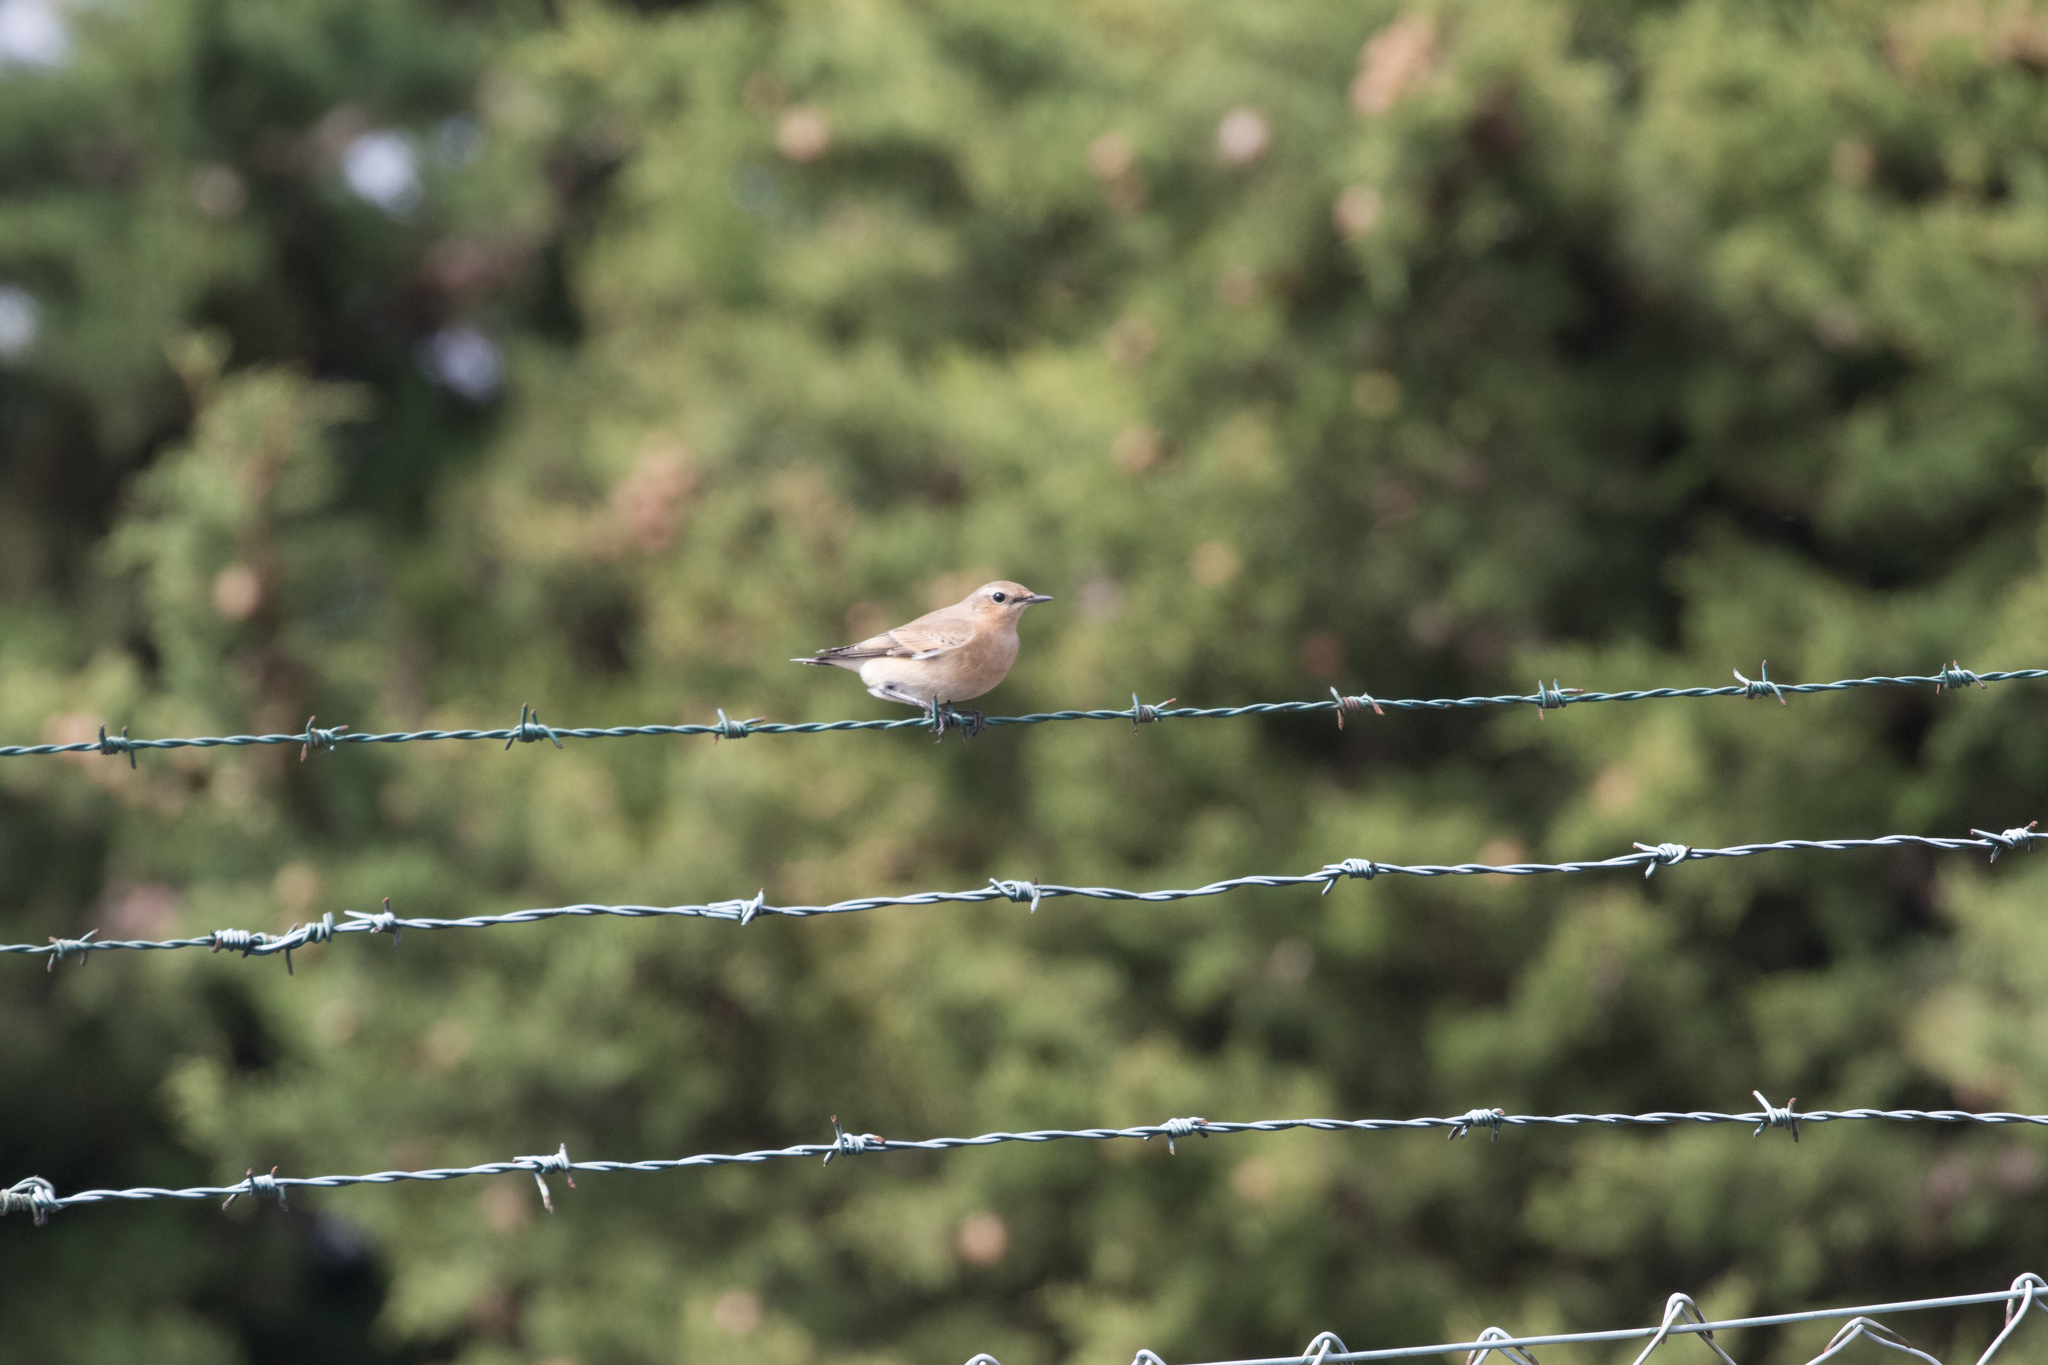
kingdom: Animalia
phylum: Chordata
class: Aves
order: Passeriformes
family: Muscicapidae
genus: Oenanthe
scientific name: Oenanthe oenanthe
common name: Northern wheatear
